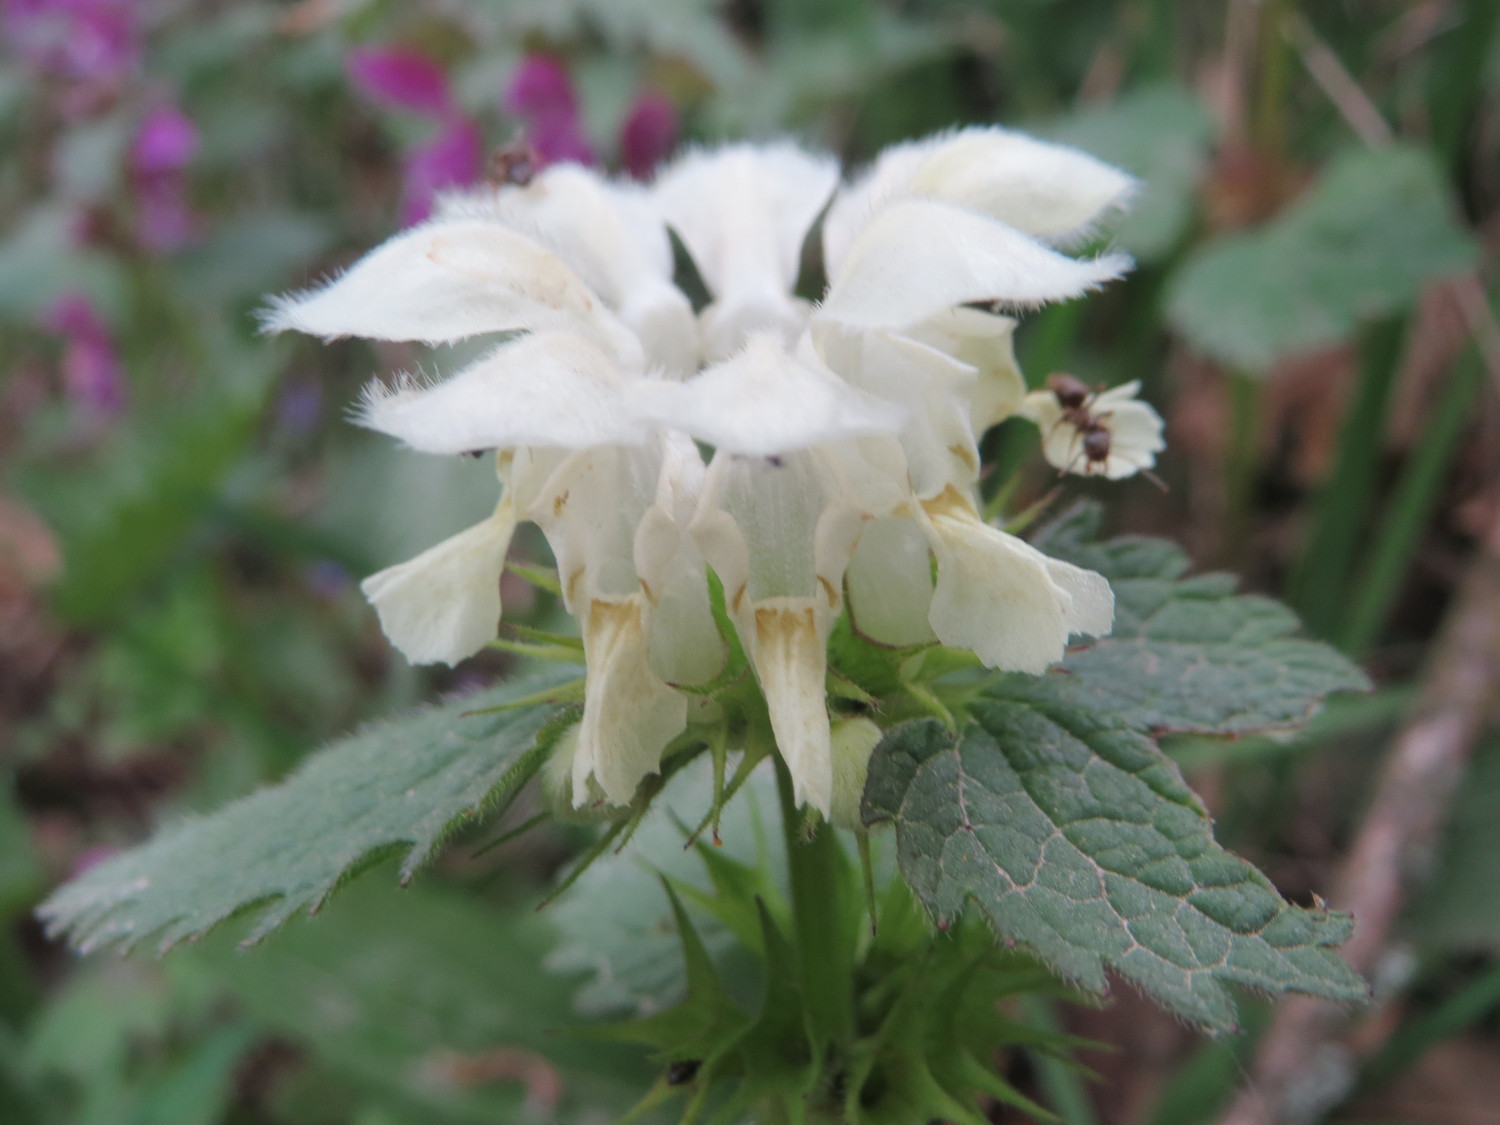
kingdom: Plantae
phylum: Tracheophyta
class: Magnoliopsida
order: Lamiales
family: Lamiaceae
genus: Lamium
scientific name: Lamium album
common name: White dead-nettle
